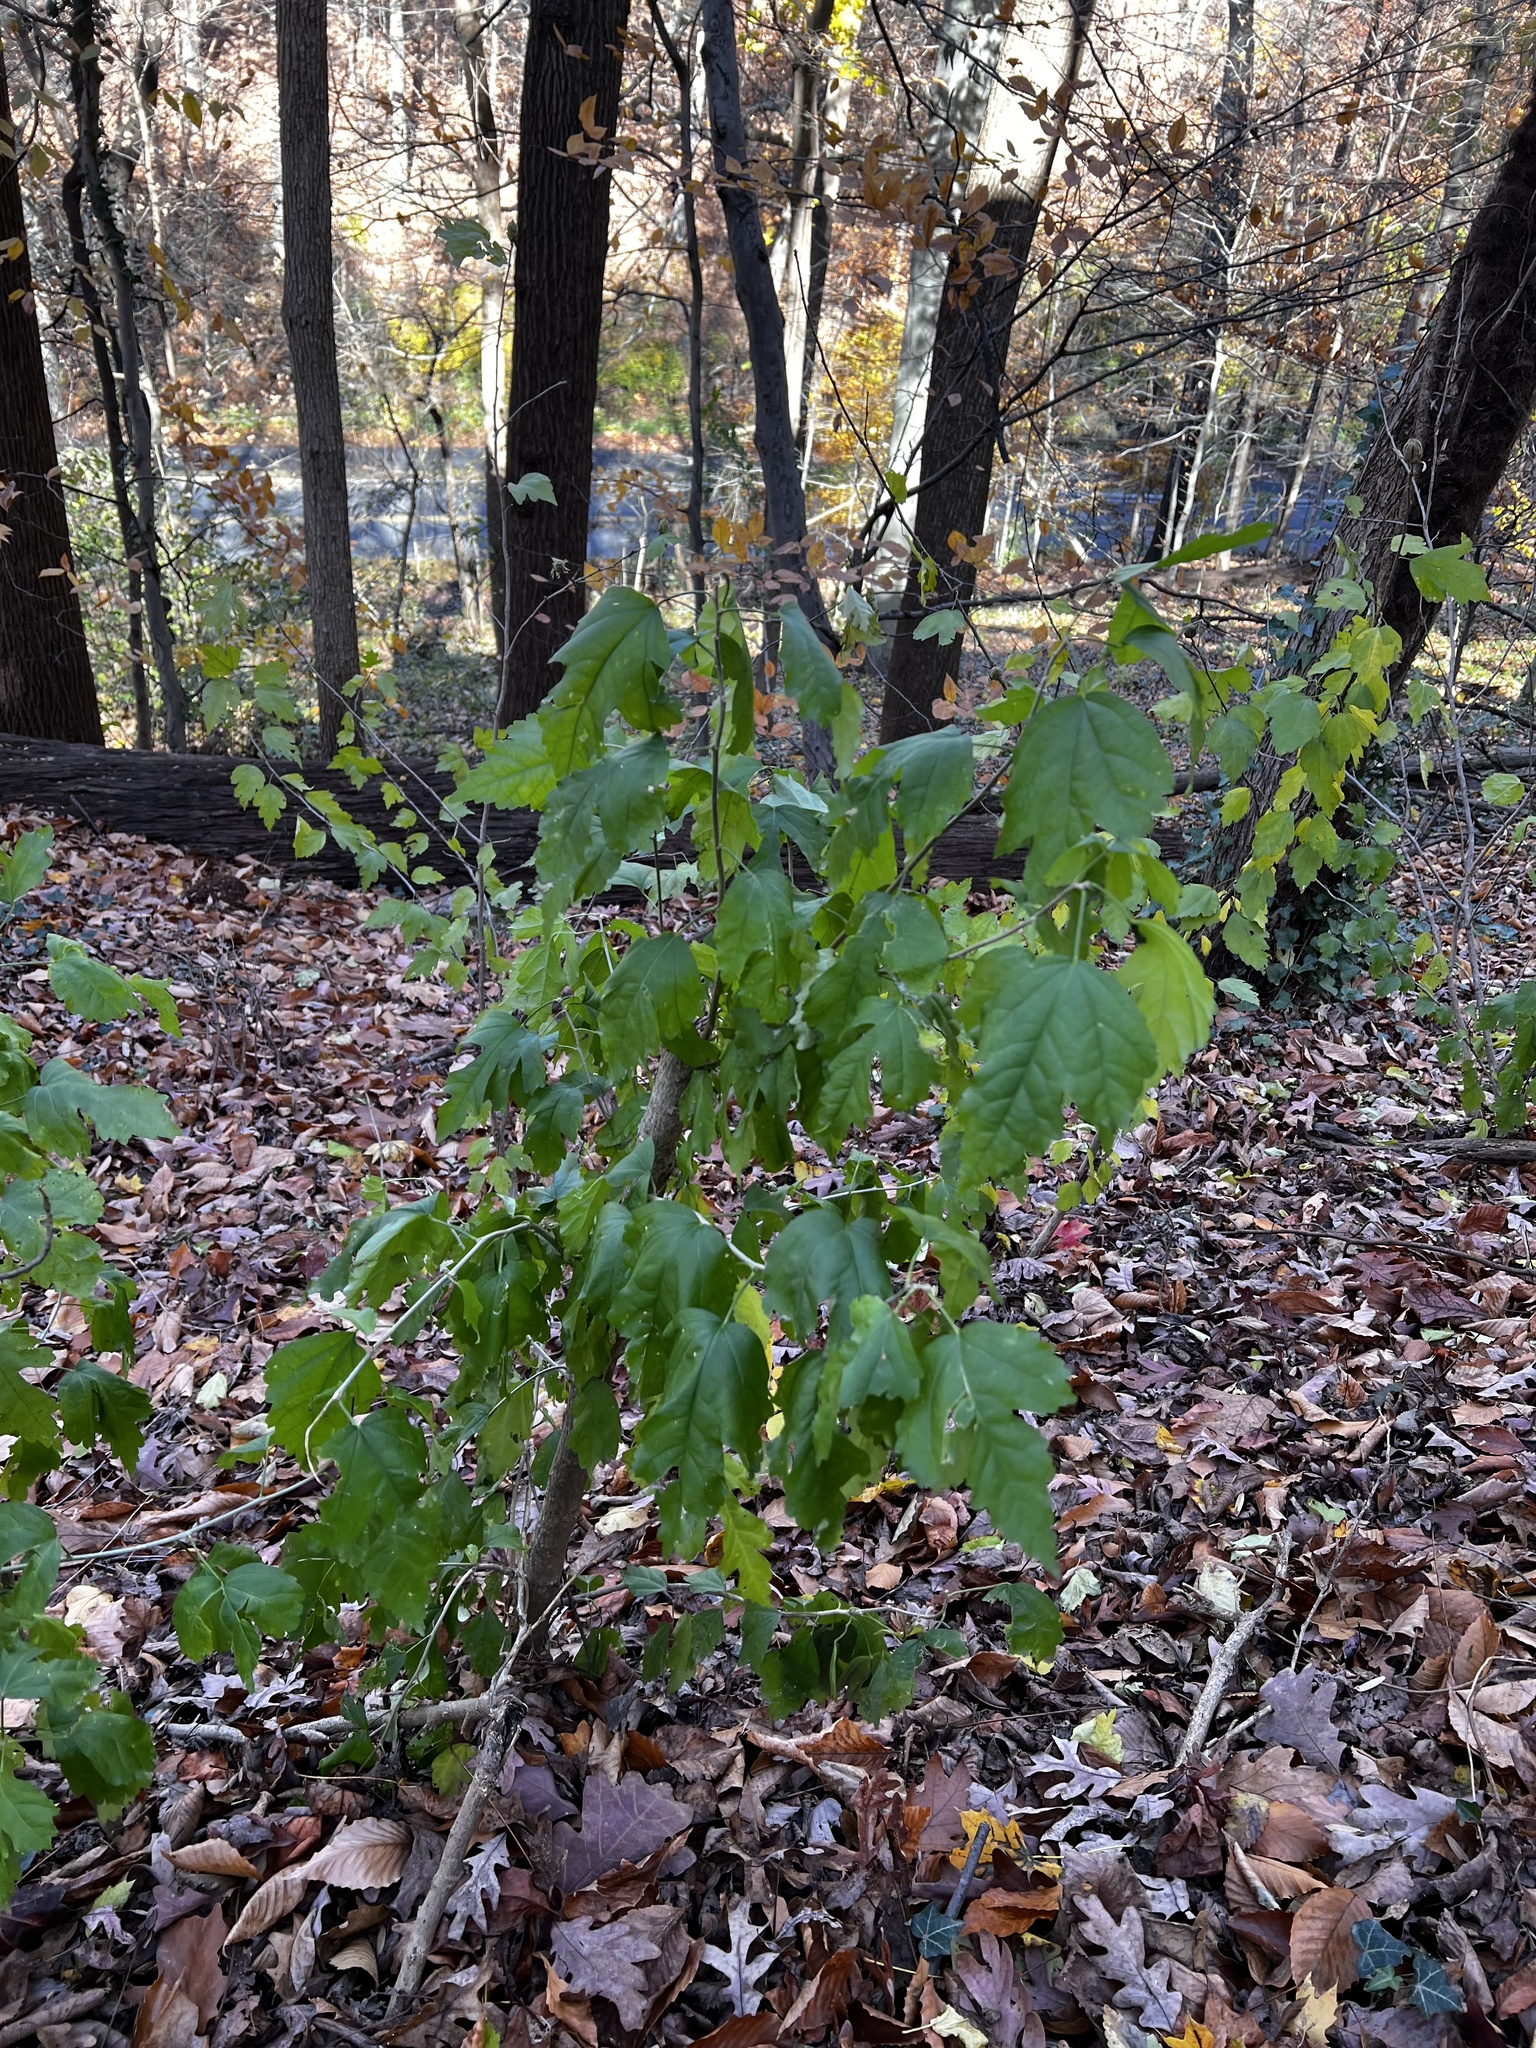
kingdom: Plantae
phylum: Tracheophyta
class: Magnoliopsida
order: Malvales
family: Malvaceae
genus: Hibiscus
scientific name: Hibiscus syriacus
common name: Syrian ketmia
